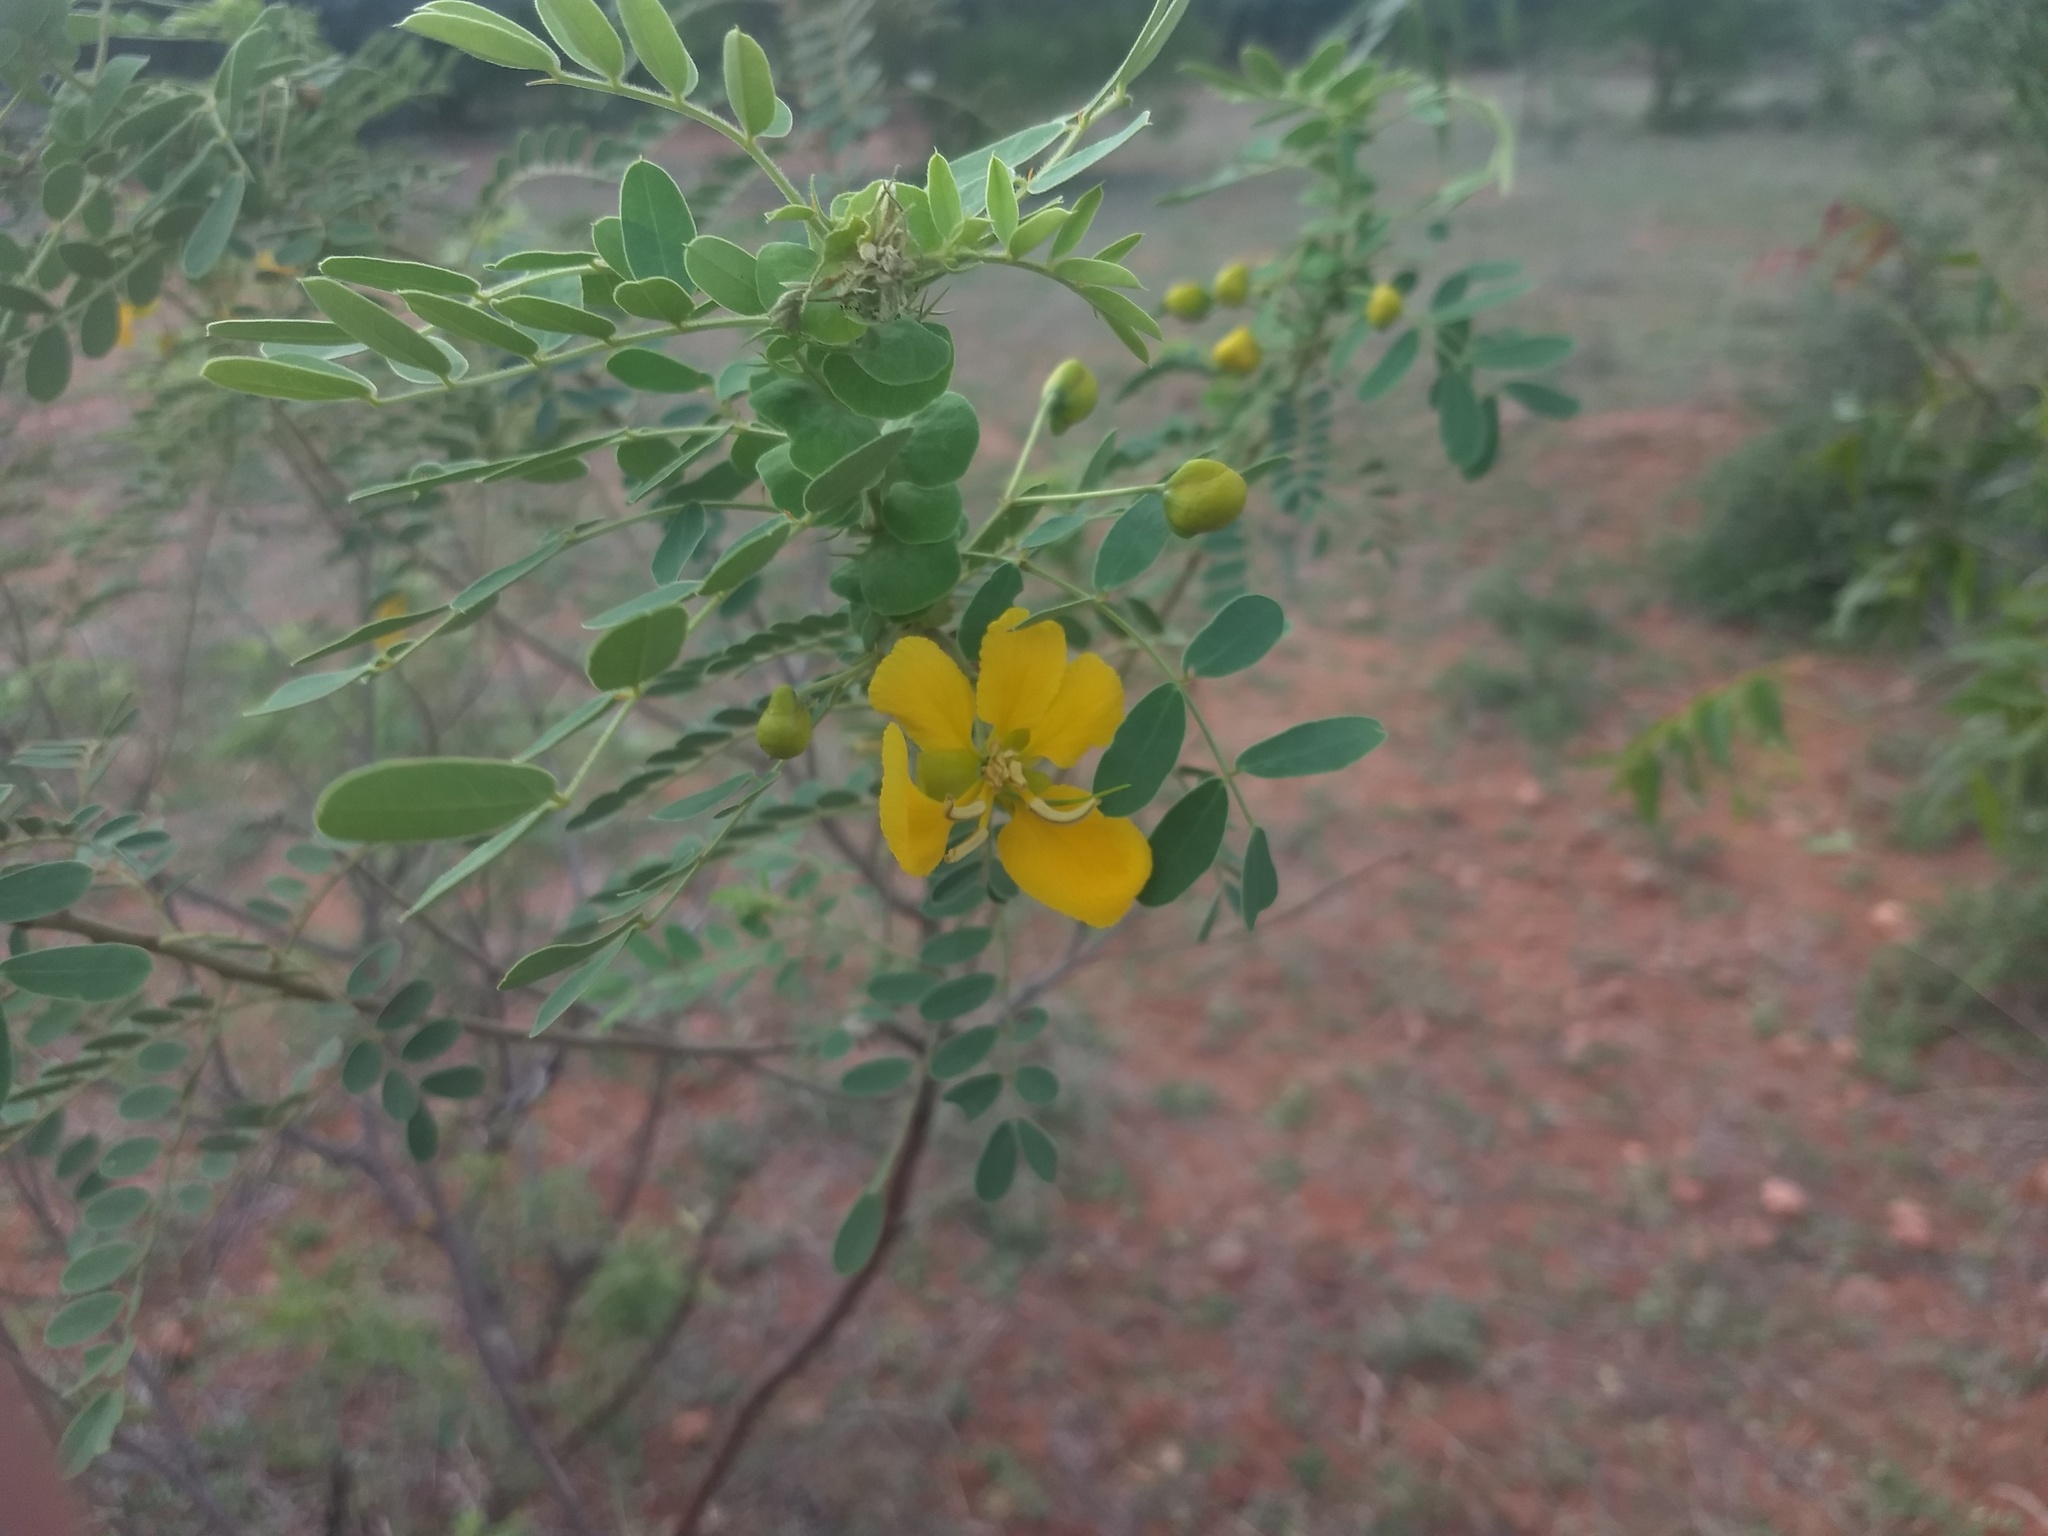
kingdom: Plantae
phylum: Tracheophyta
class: Magnoliopsida
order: Fabales
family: Fabaceae
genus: Senna
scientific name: Senna auriculata
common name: Tanner's cassia
